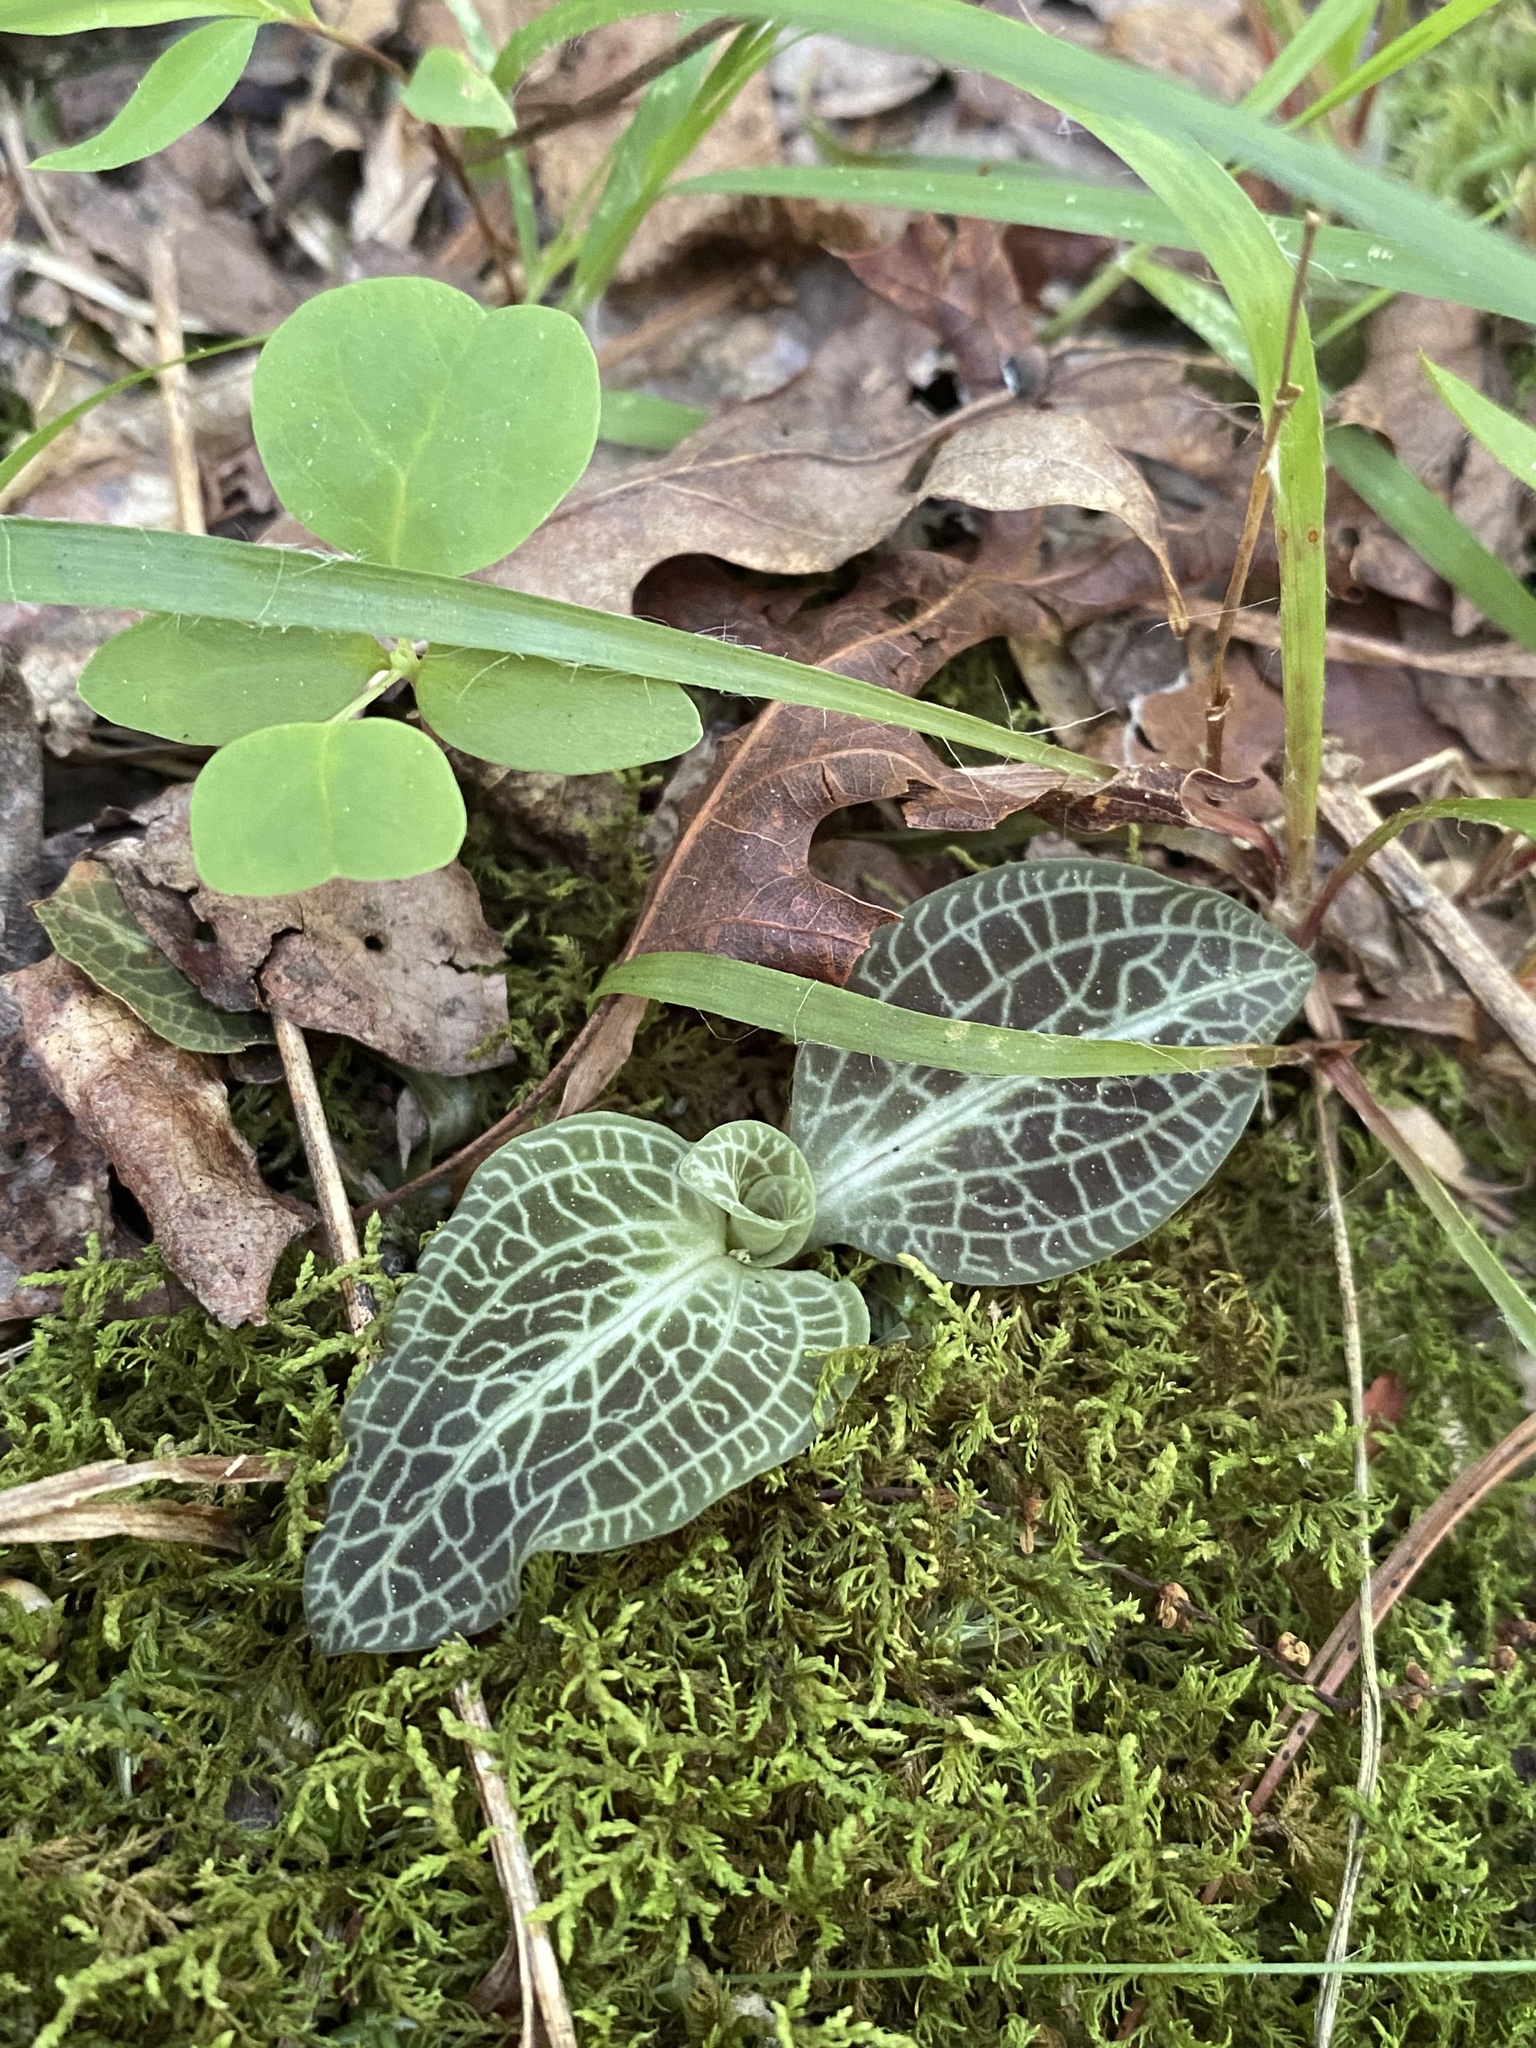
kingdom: Plantae
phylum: Tracheophyta
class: Liliopsida
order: Asparagales
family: Orchidaceae
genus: Goodyera
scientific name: Goodyera pubescens
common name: Downy rattlesnake-plantain
